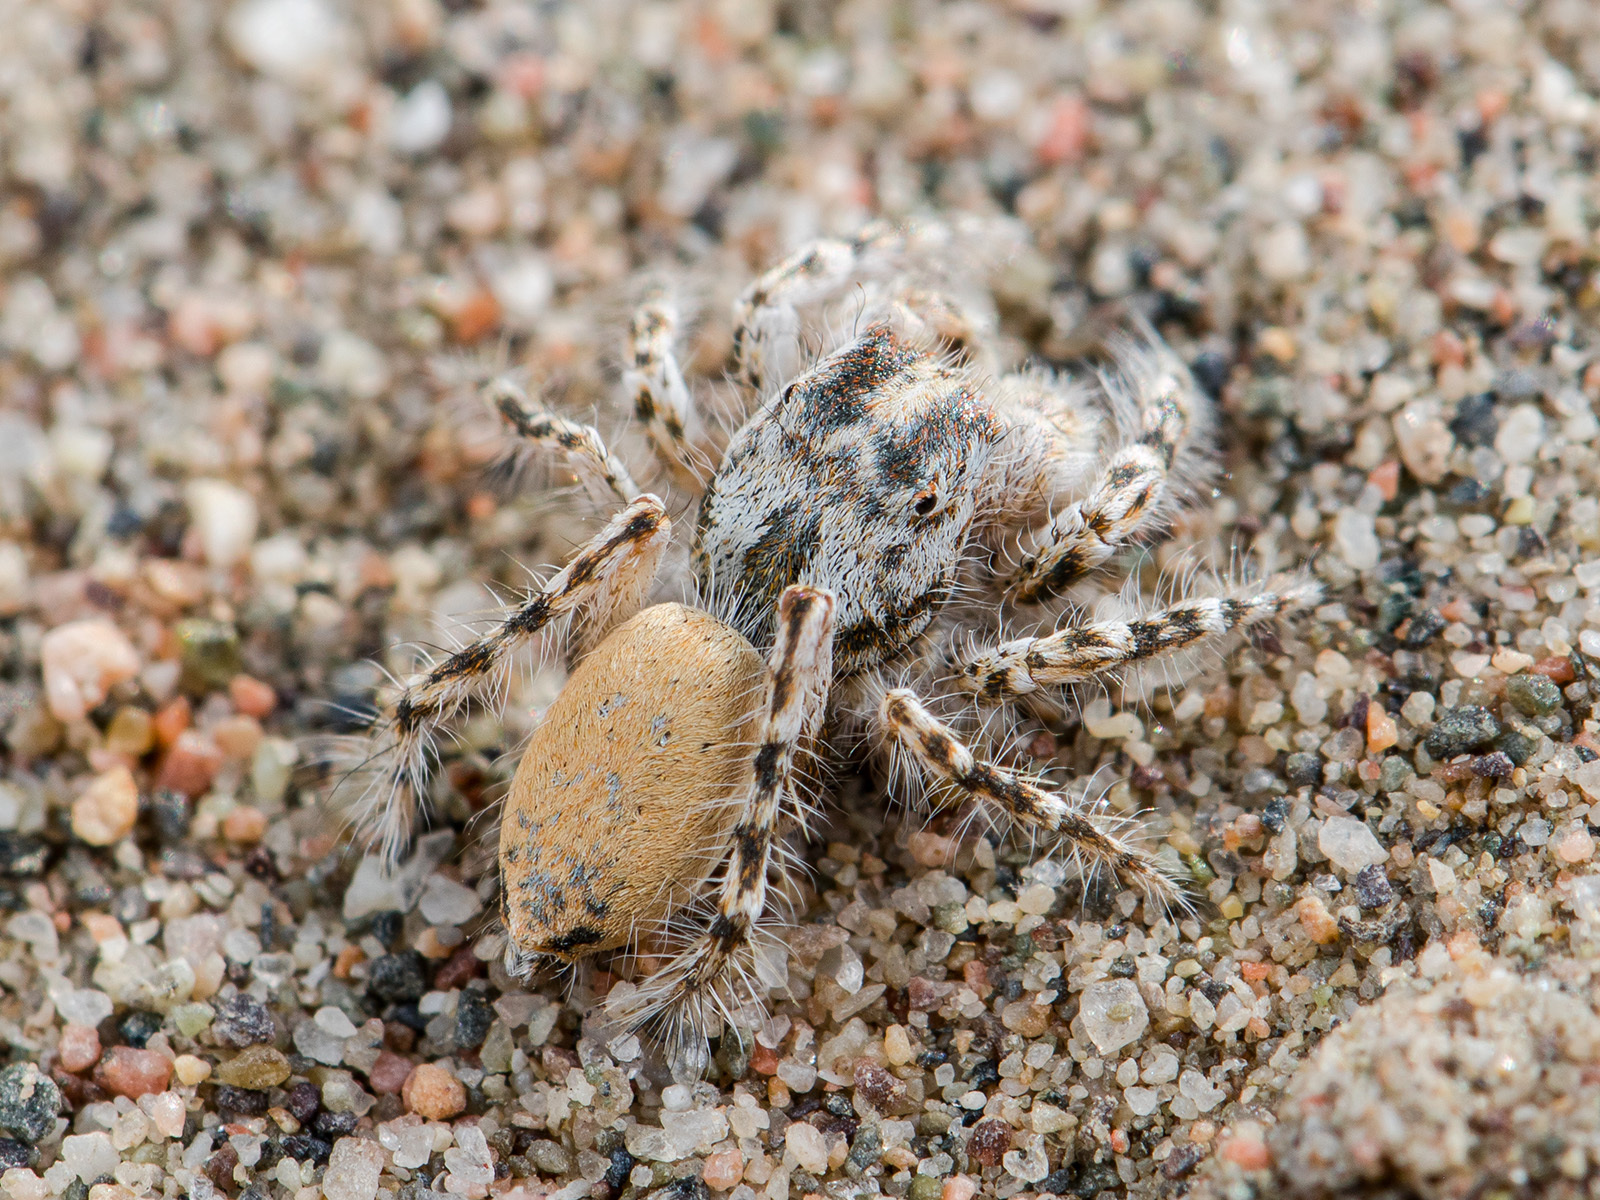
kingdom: Animalia
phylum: Arthropoda
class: Arachnida
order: Araneae
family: Salticidae
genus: Yllenus
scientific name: Yllenus turkestanicus
